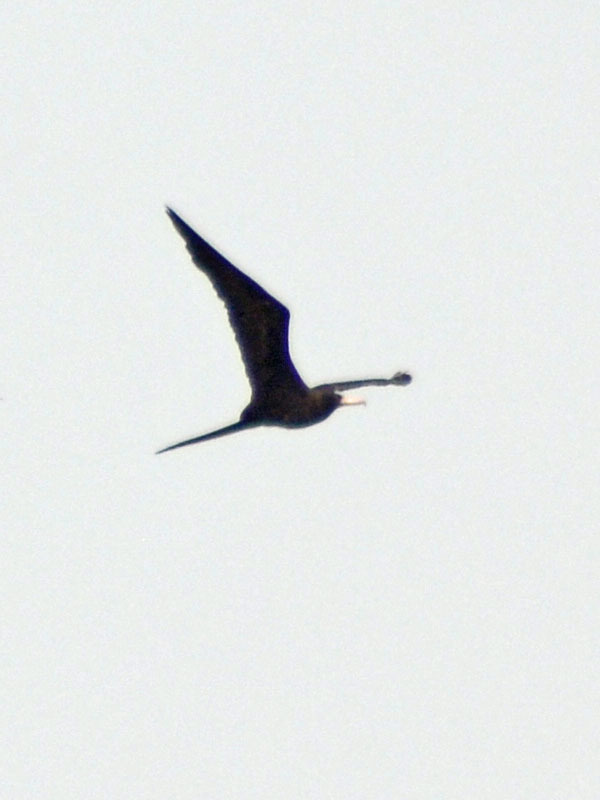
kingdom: Animalia
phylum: Chordata
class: Aves
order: Suliformes
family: Fregatidae
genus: Fregata
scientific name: Fregata magnificens
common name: Magnificent frigatebird
